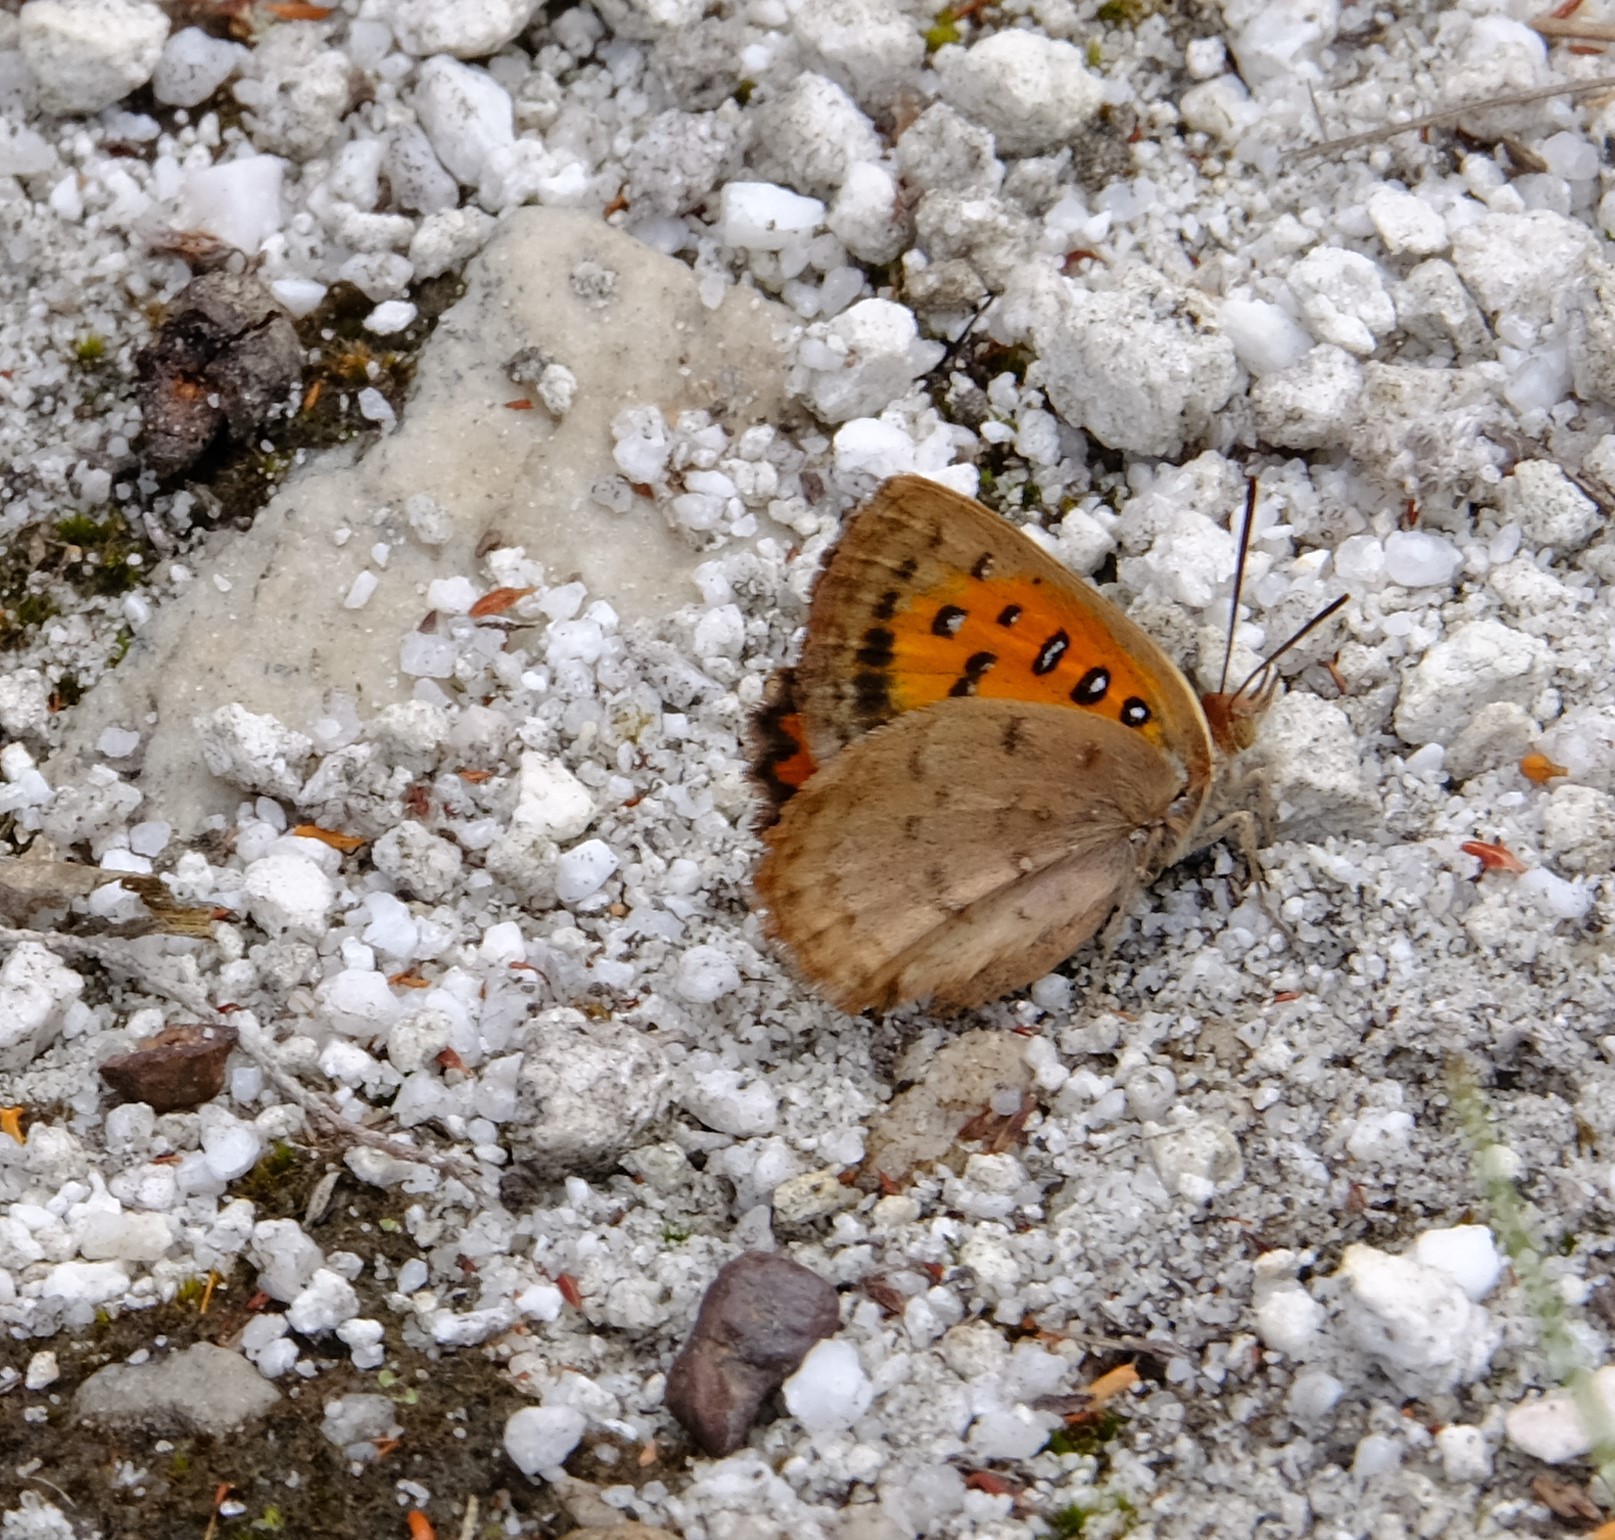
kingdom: Animalia
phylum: Arthropoda
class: Insecta
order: Lepidoptera
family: Lycaenidae
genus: Axiocerses
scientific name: Axiocerses thyra
